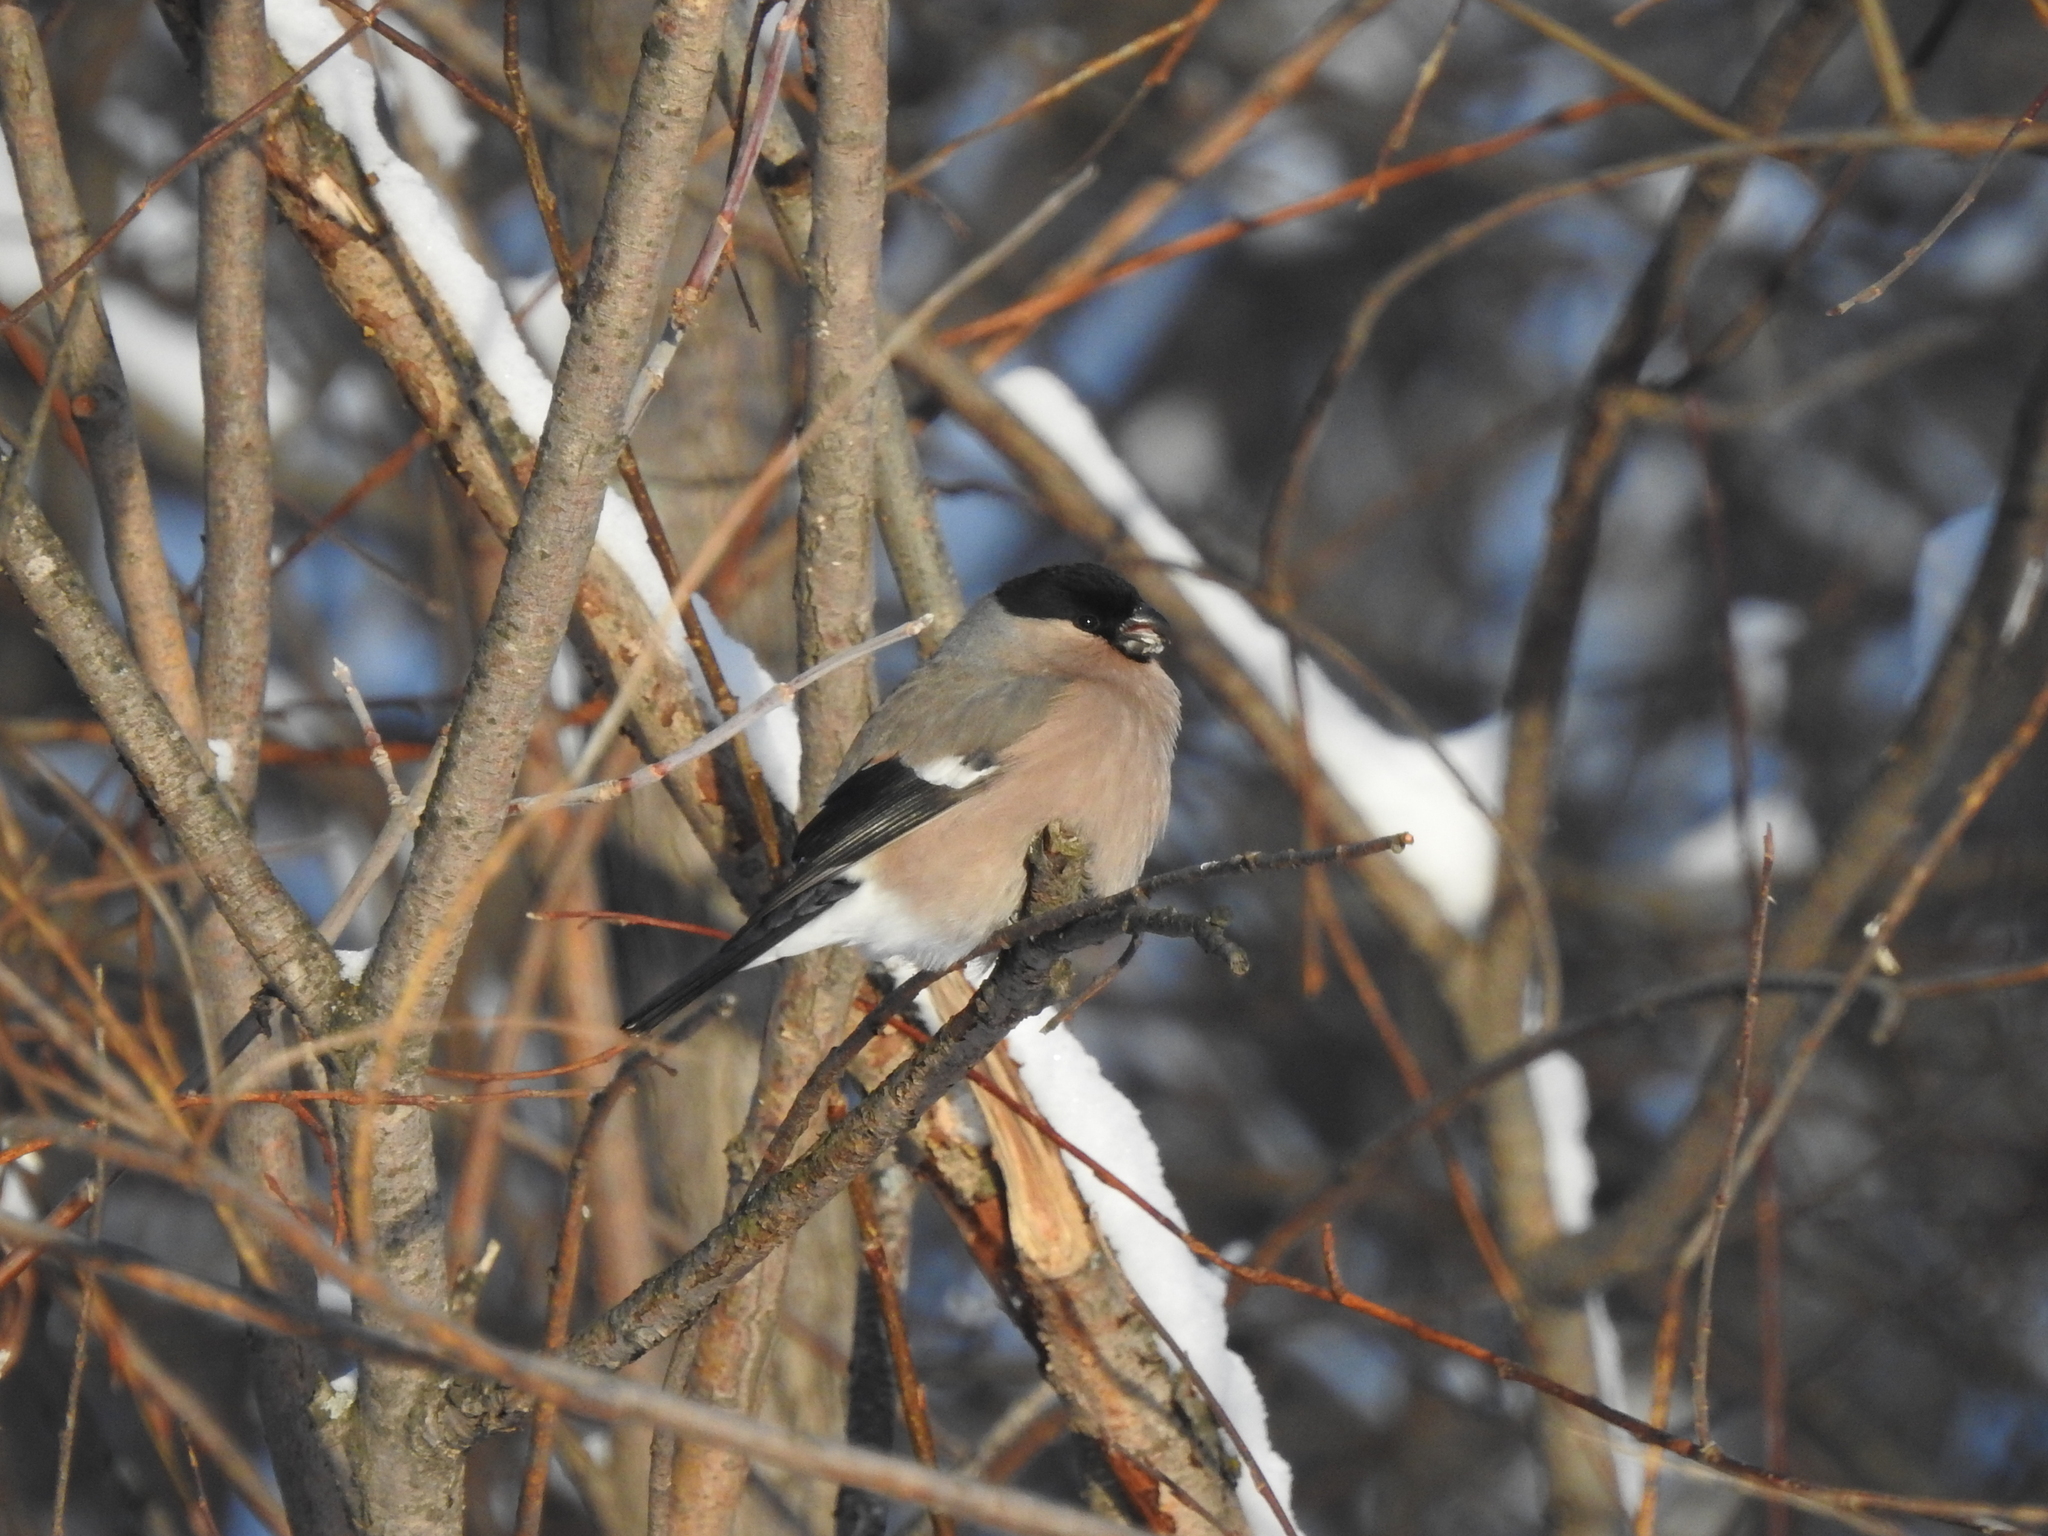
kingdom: Animalia
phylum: Chordata
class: Aves
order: Passeriformes
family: Fringillidae
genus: Pyrrhula
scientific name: Pyrrhula pyrrhula
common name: Eurasian bullfinch
